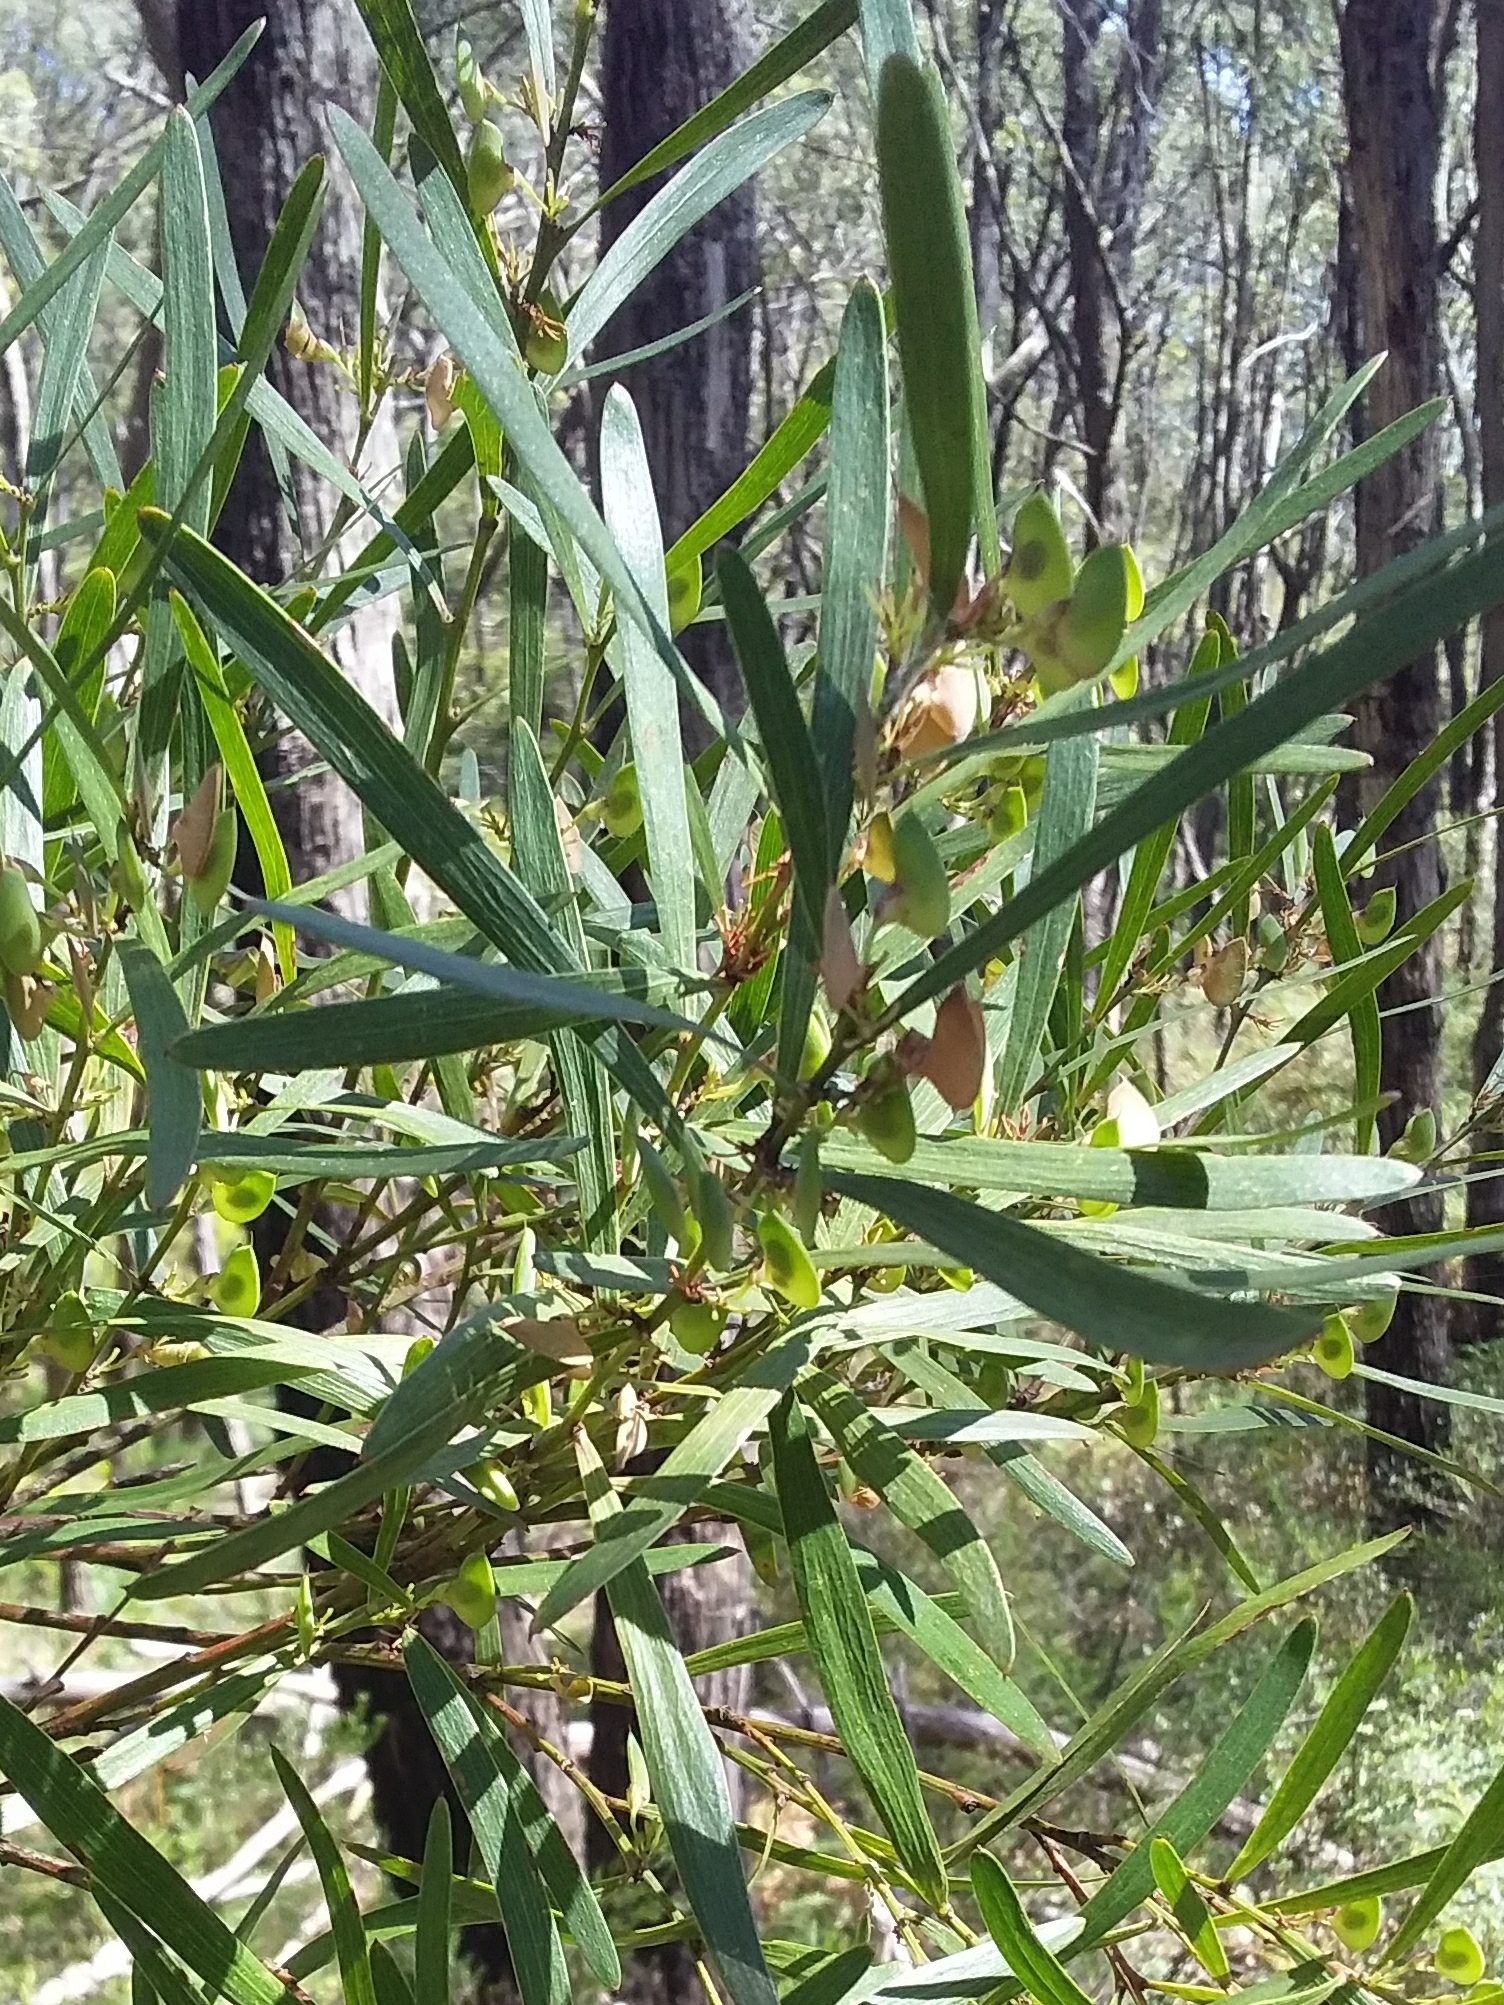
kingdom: Plantae
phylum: Tracheophyta
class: Magnoliopsida
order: Fabales
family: Fabaceae
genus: Daviesia
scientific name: Daviesia leptophylla
